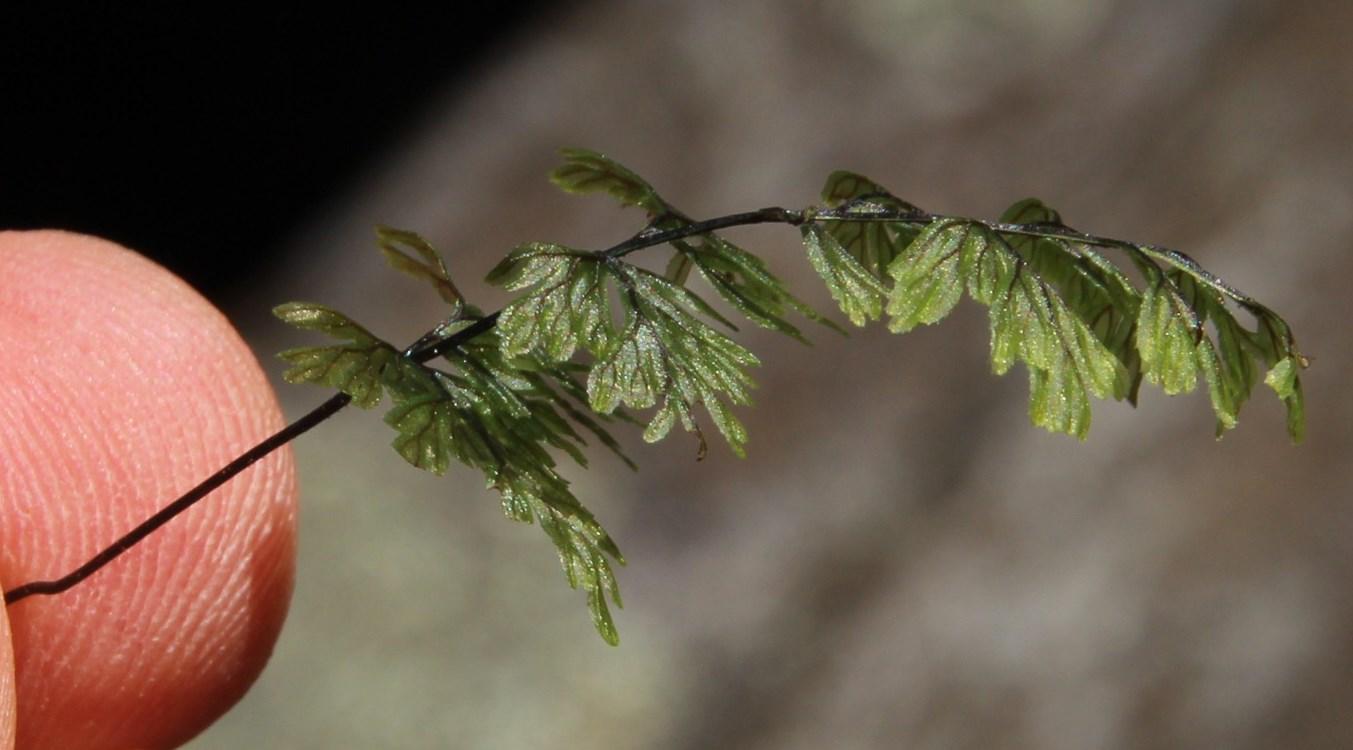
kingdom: Plantae
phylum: Tracheophyta
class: Polypodiopsida
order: Hymenophyllales
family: Hymenophyllaceae
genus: Hymenophyllum
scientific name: Hymenophyllum tunbrigense
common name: Tunbridge filmy fern
